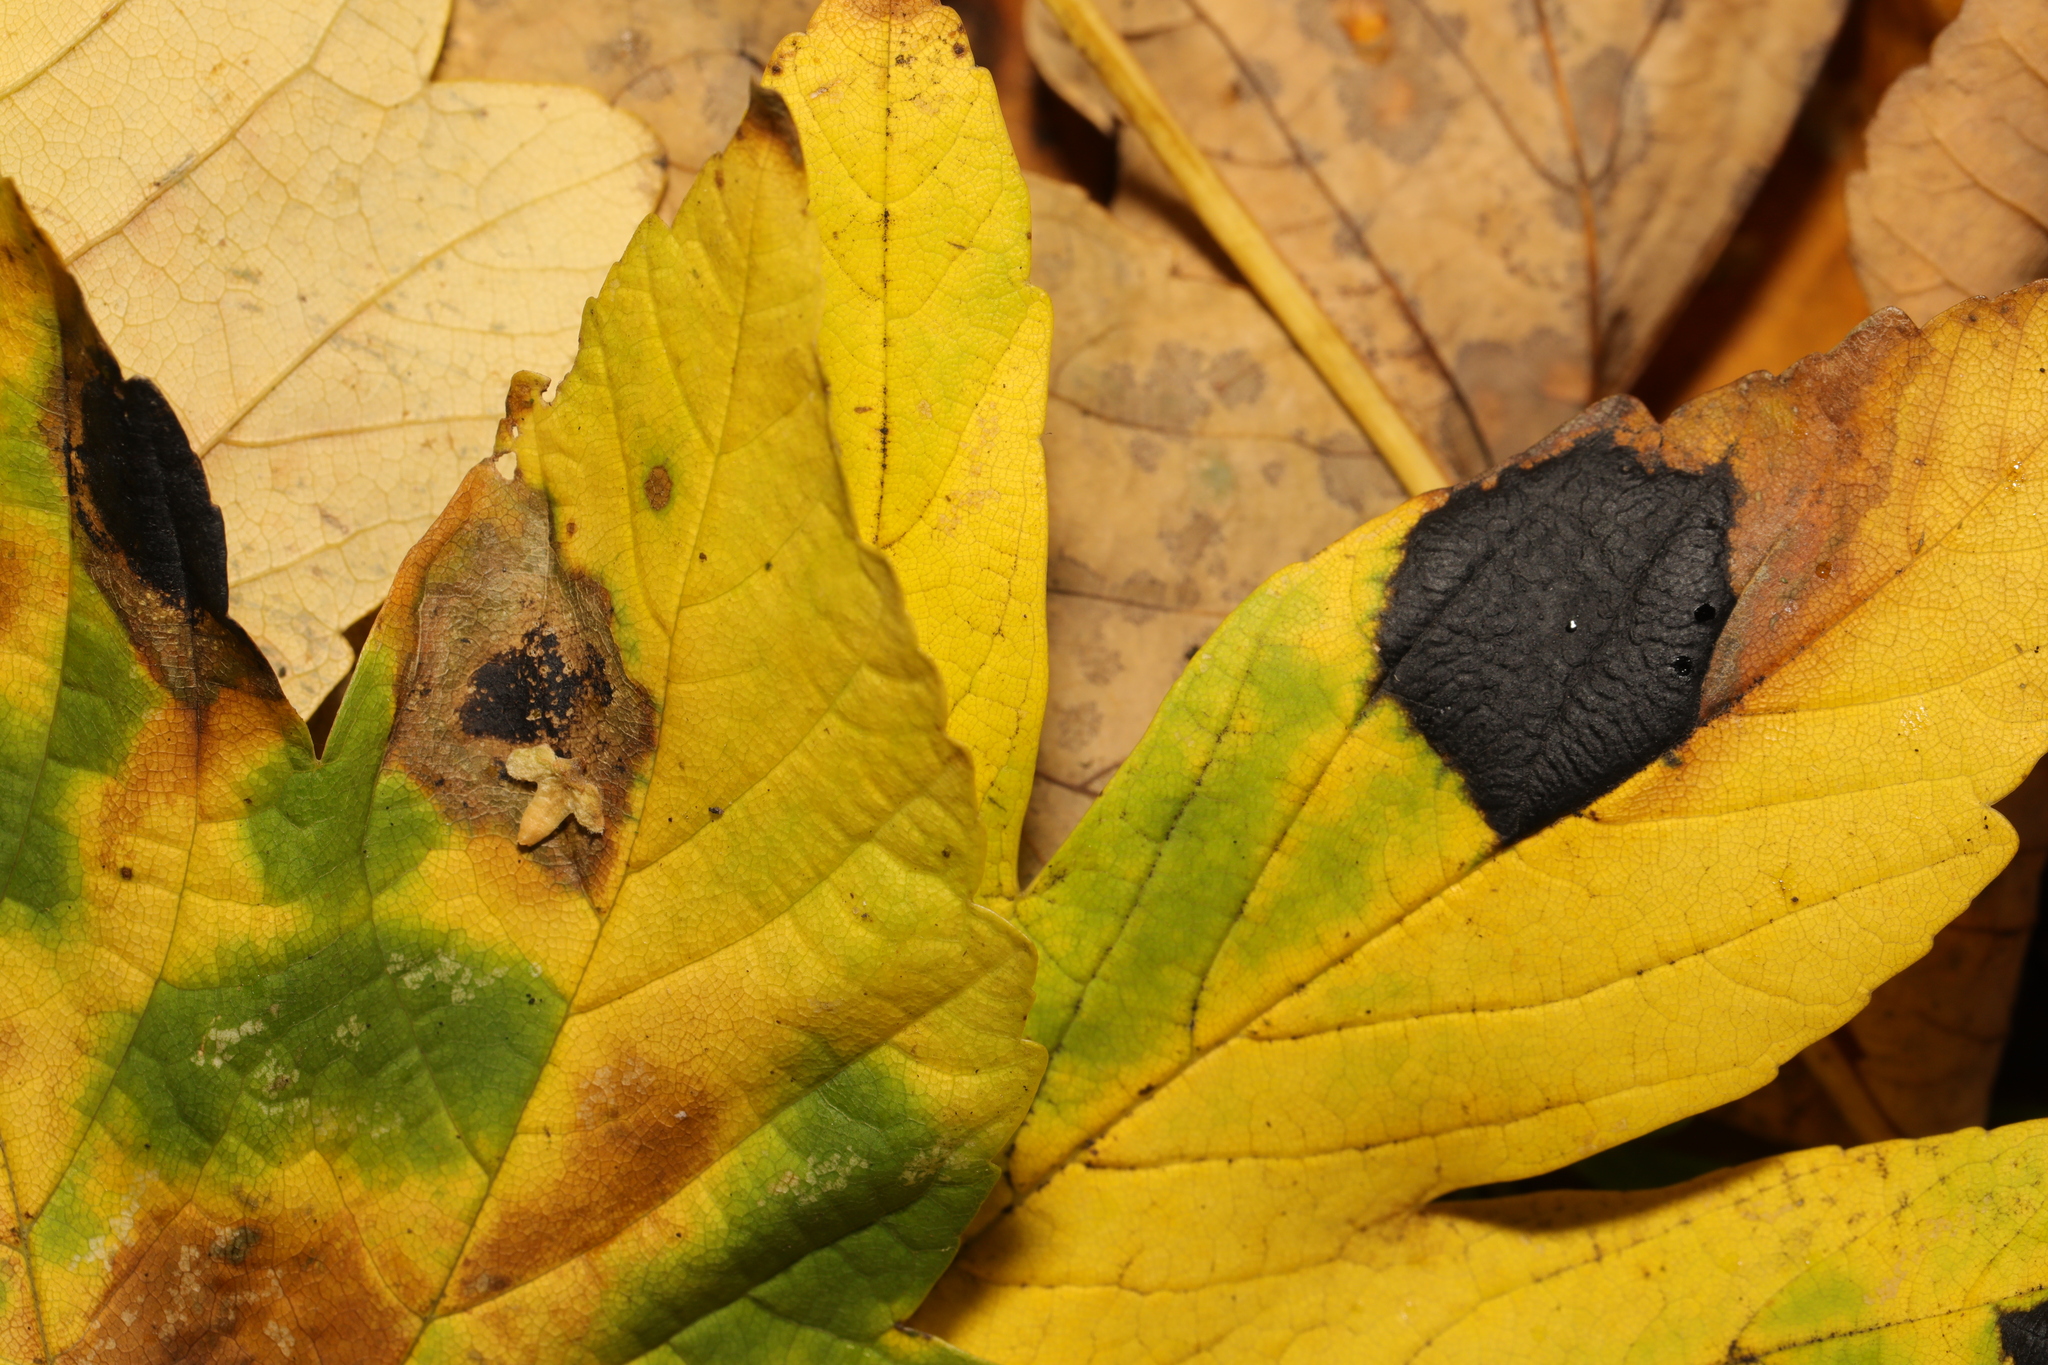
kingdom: Fungi
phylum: Ascomycota
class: Leotiomycetes
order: Rhytismatales
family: Rhytismataceae
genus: Rhytisma
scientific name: Rhytisma acerinum
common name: European tar spot
